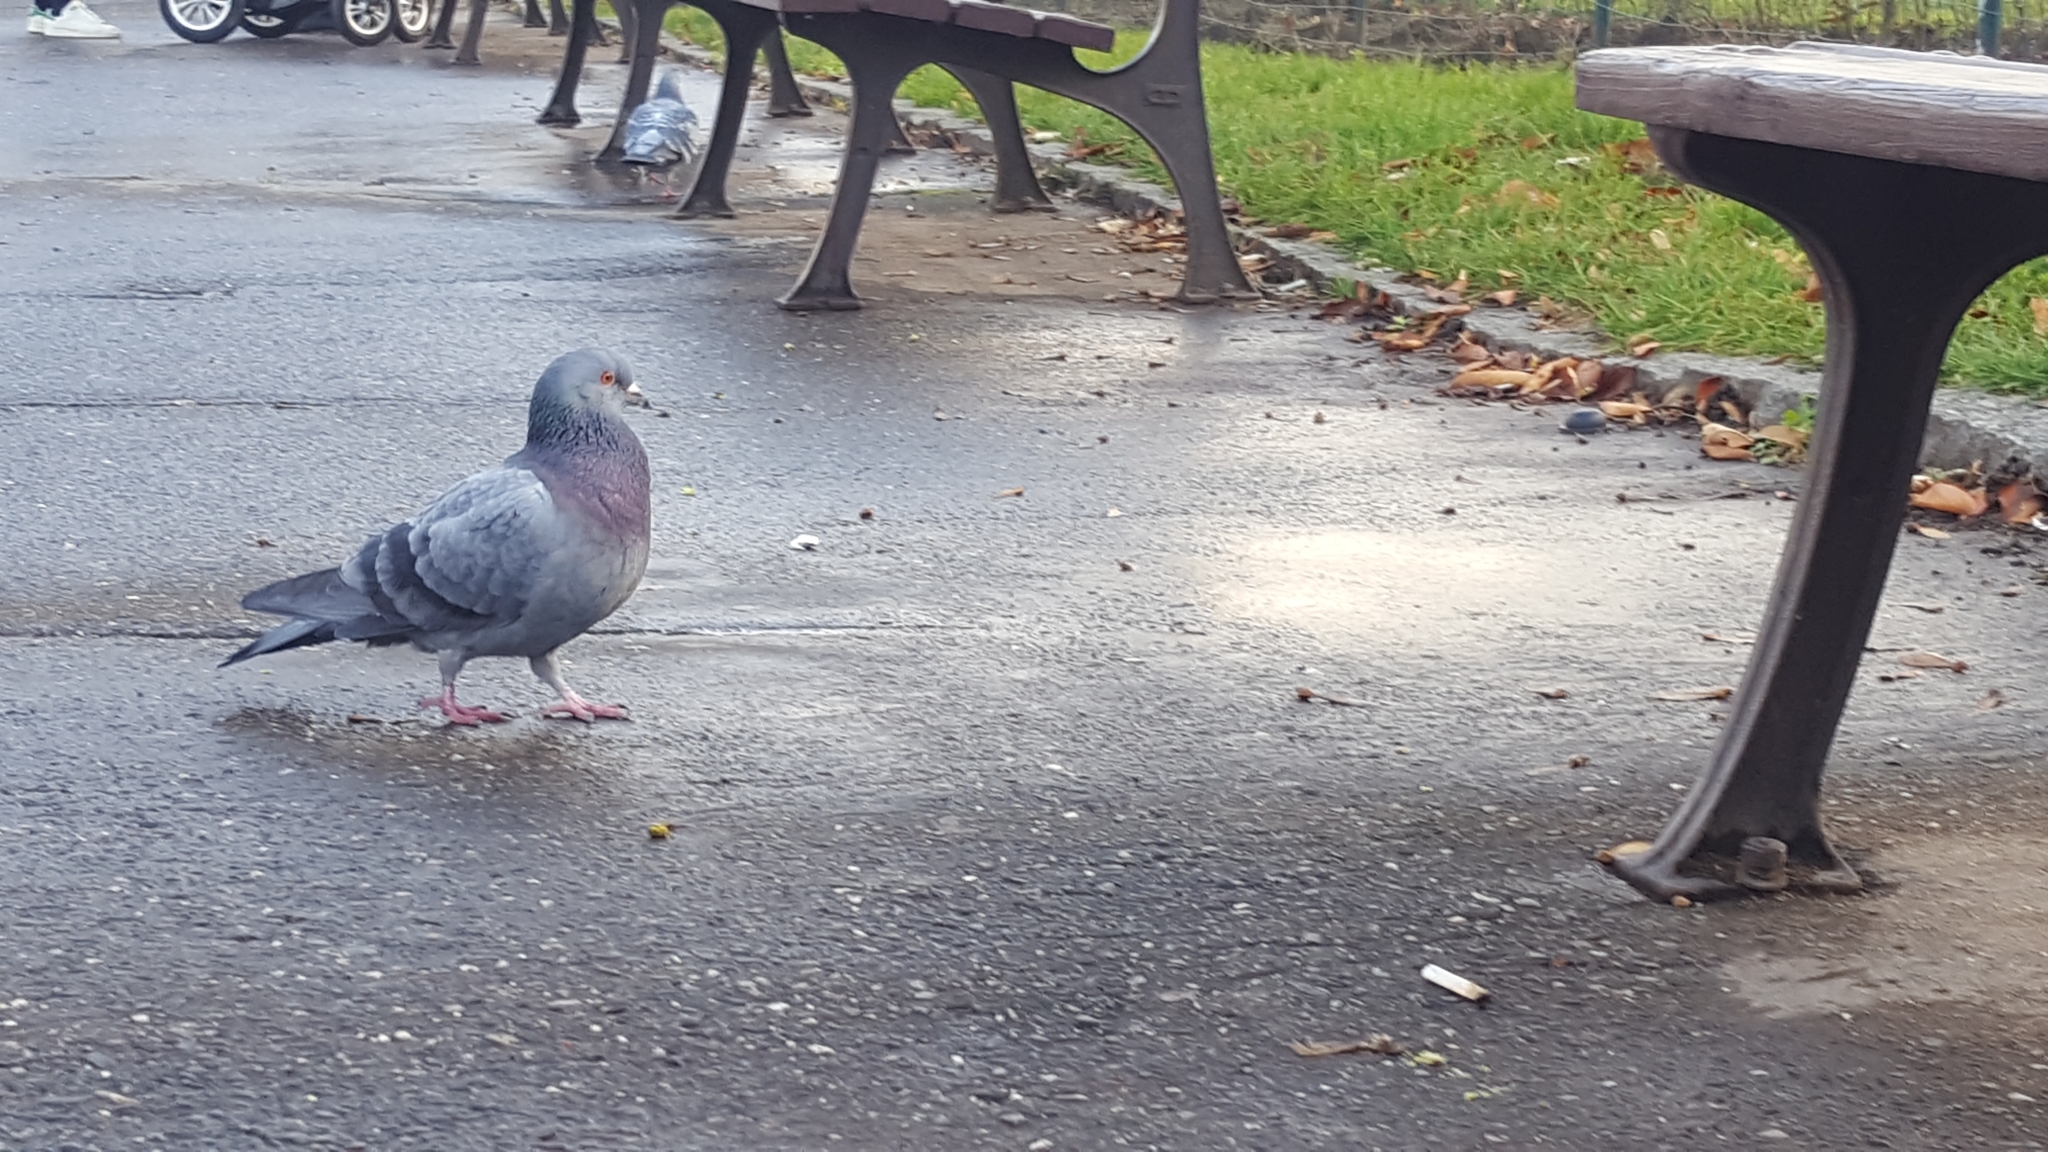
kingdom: Animalia
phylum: Chordata
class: Aves
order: Columbiformes
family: Columbidae
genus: Columba
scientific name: Columba livia
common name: Rock pigeon
